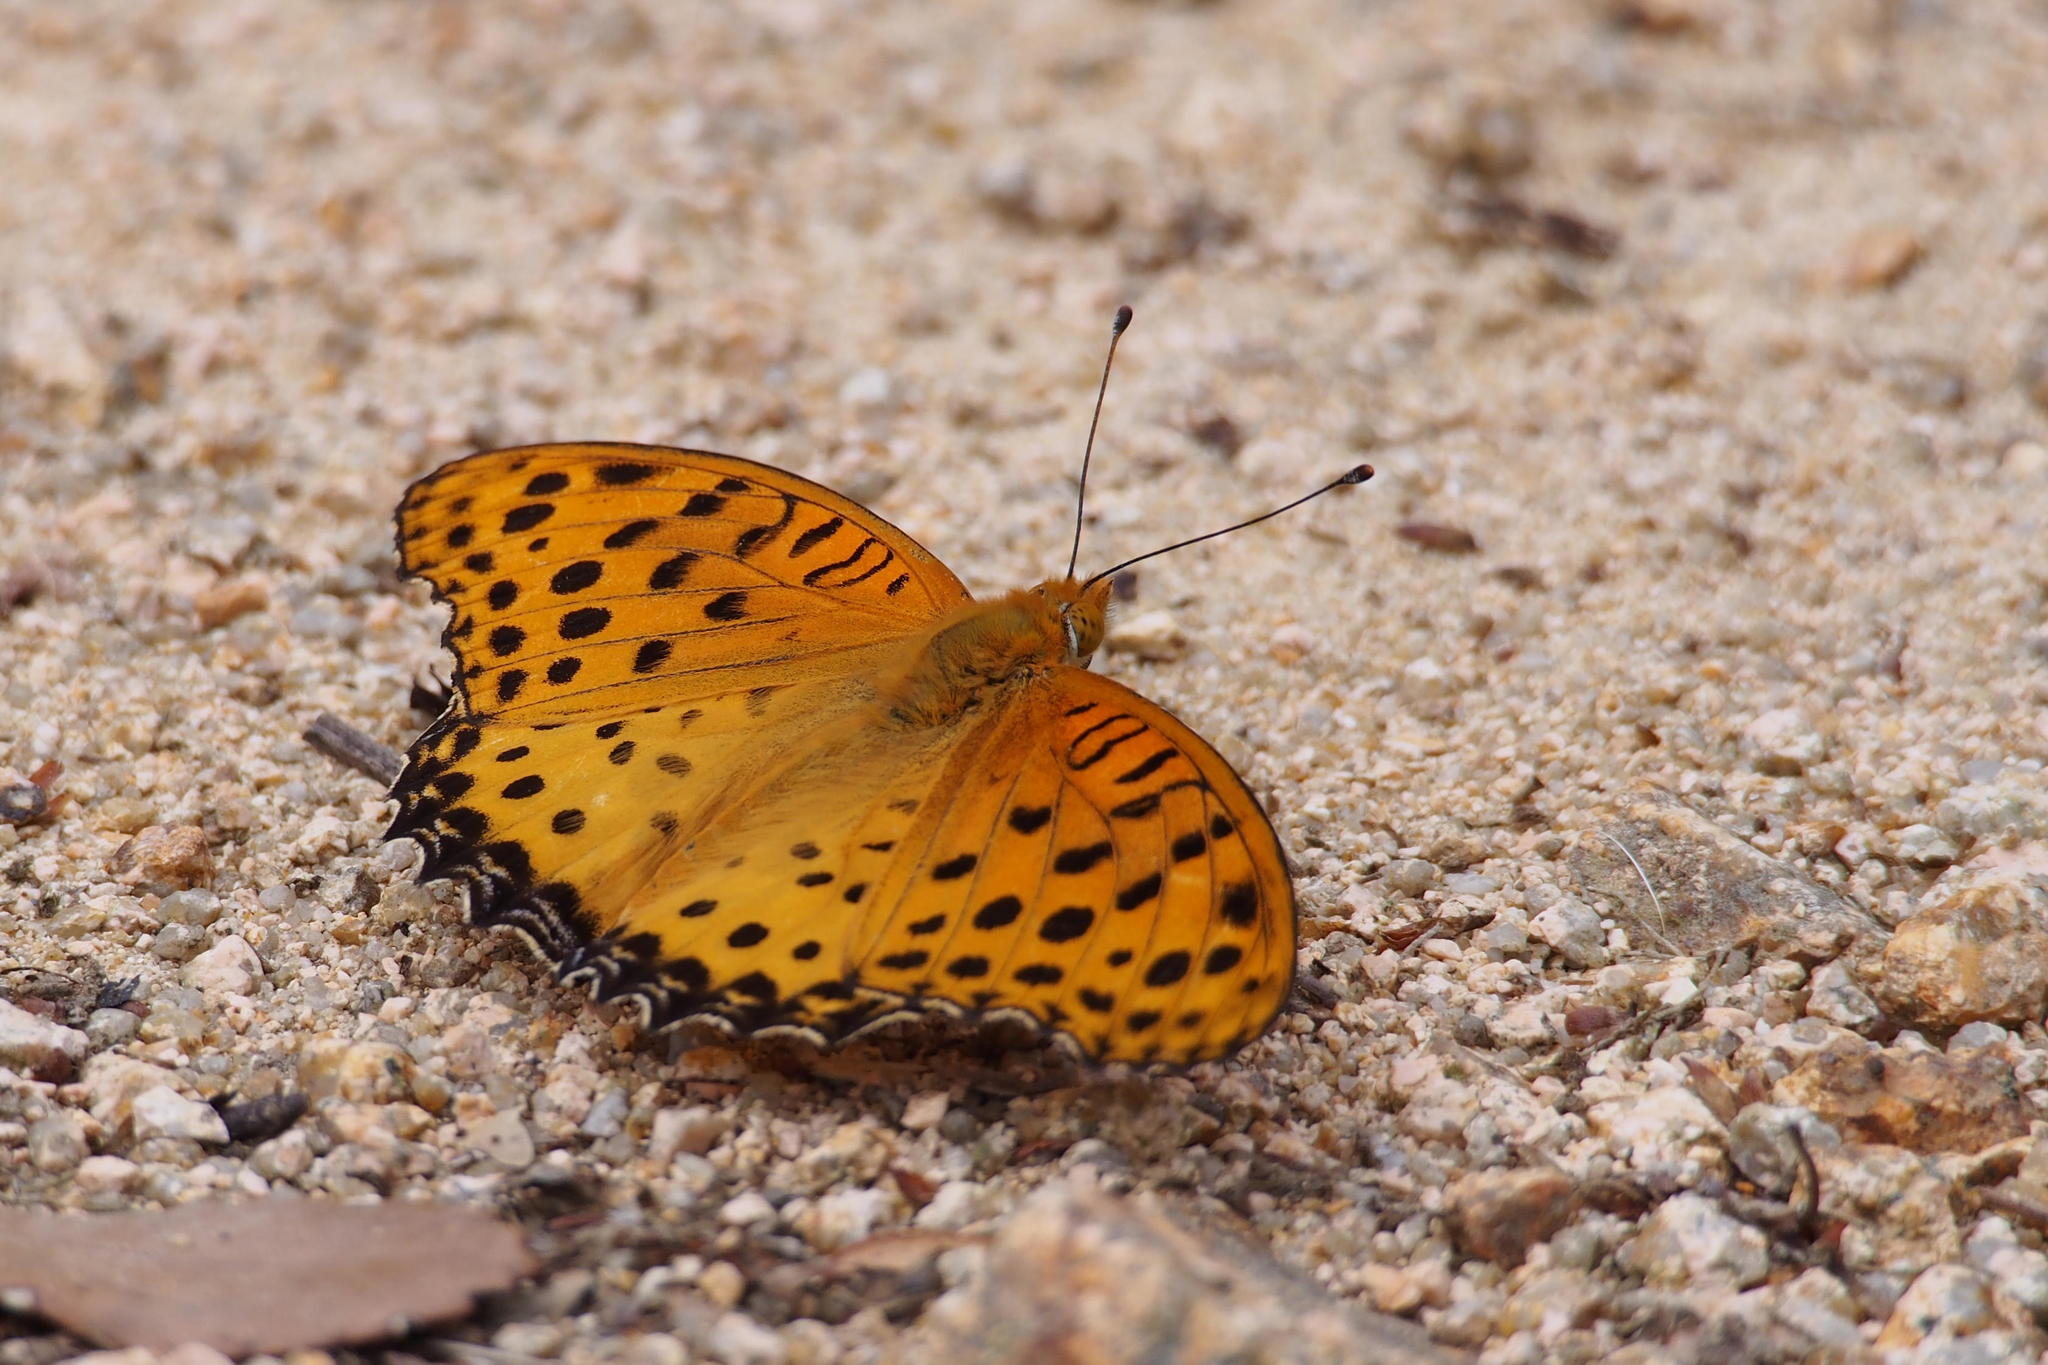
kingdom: Animalia
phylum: Arthropoda
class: Insecta
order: Lepidoptera
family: Nymphalidae
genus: Argynnis
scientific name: Argynnis hyperbius
